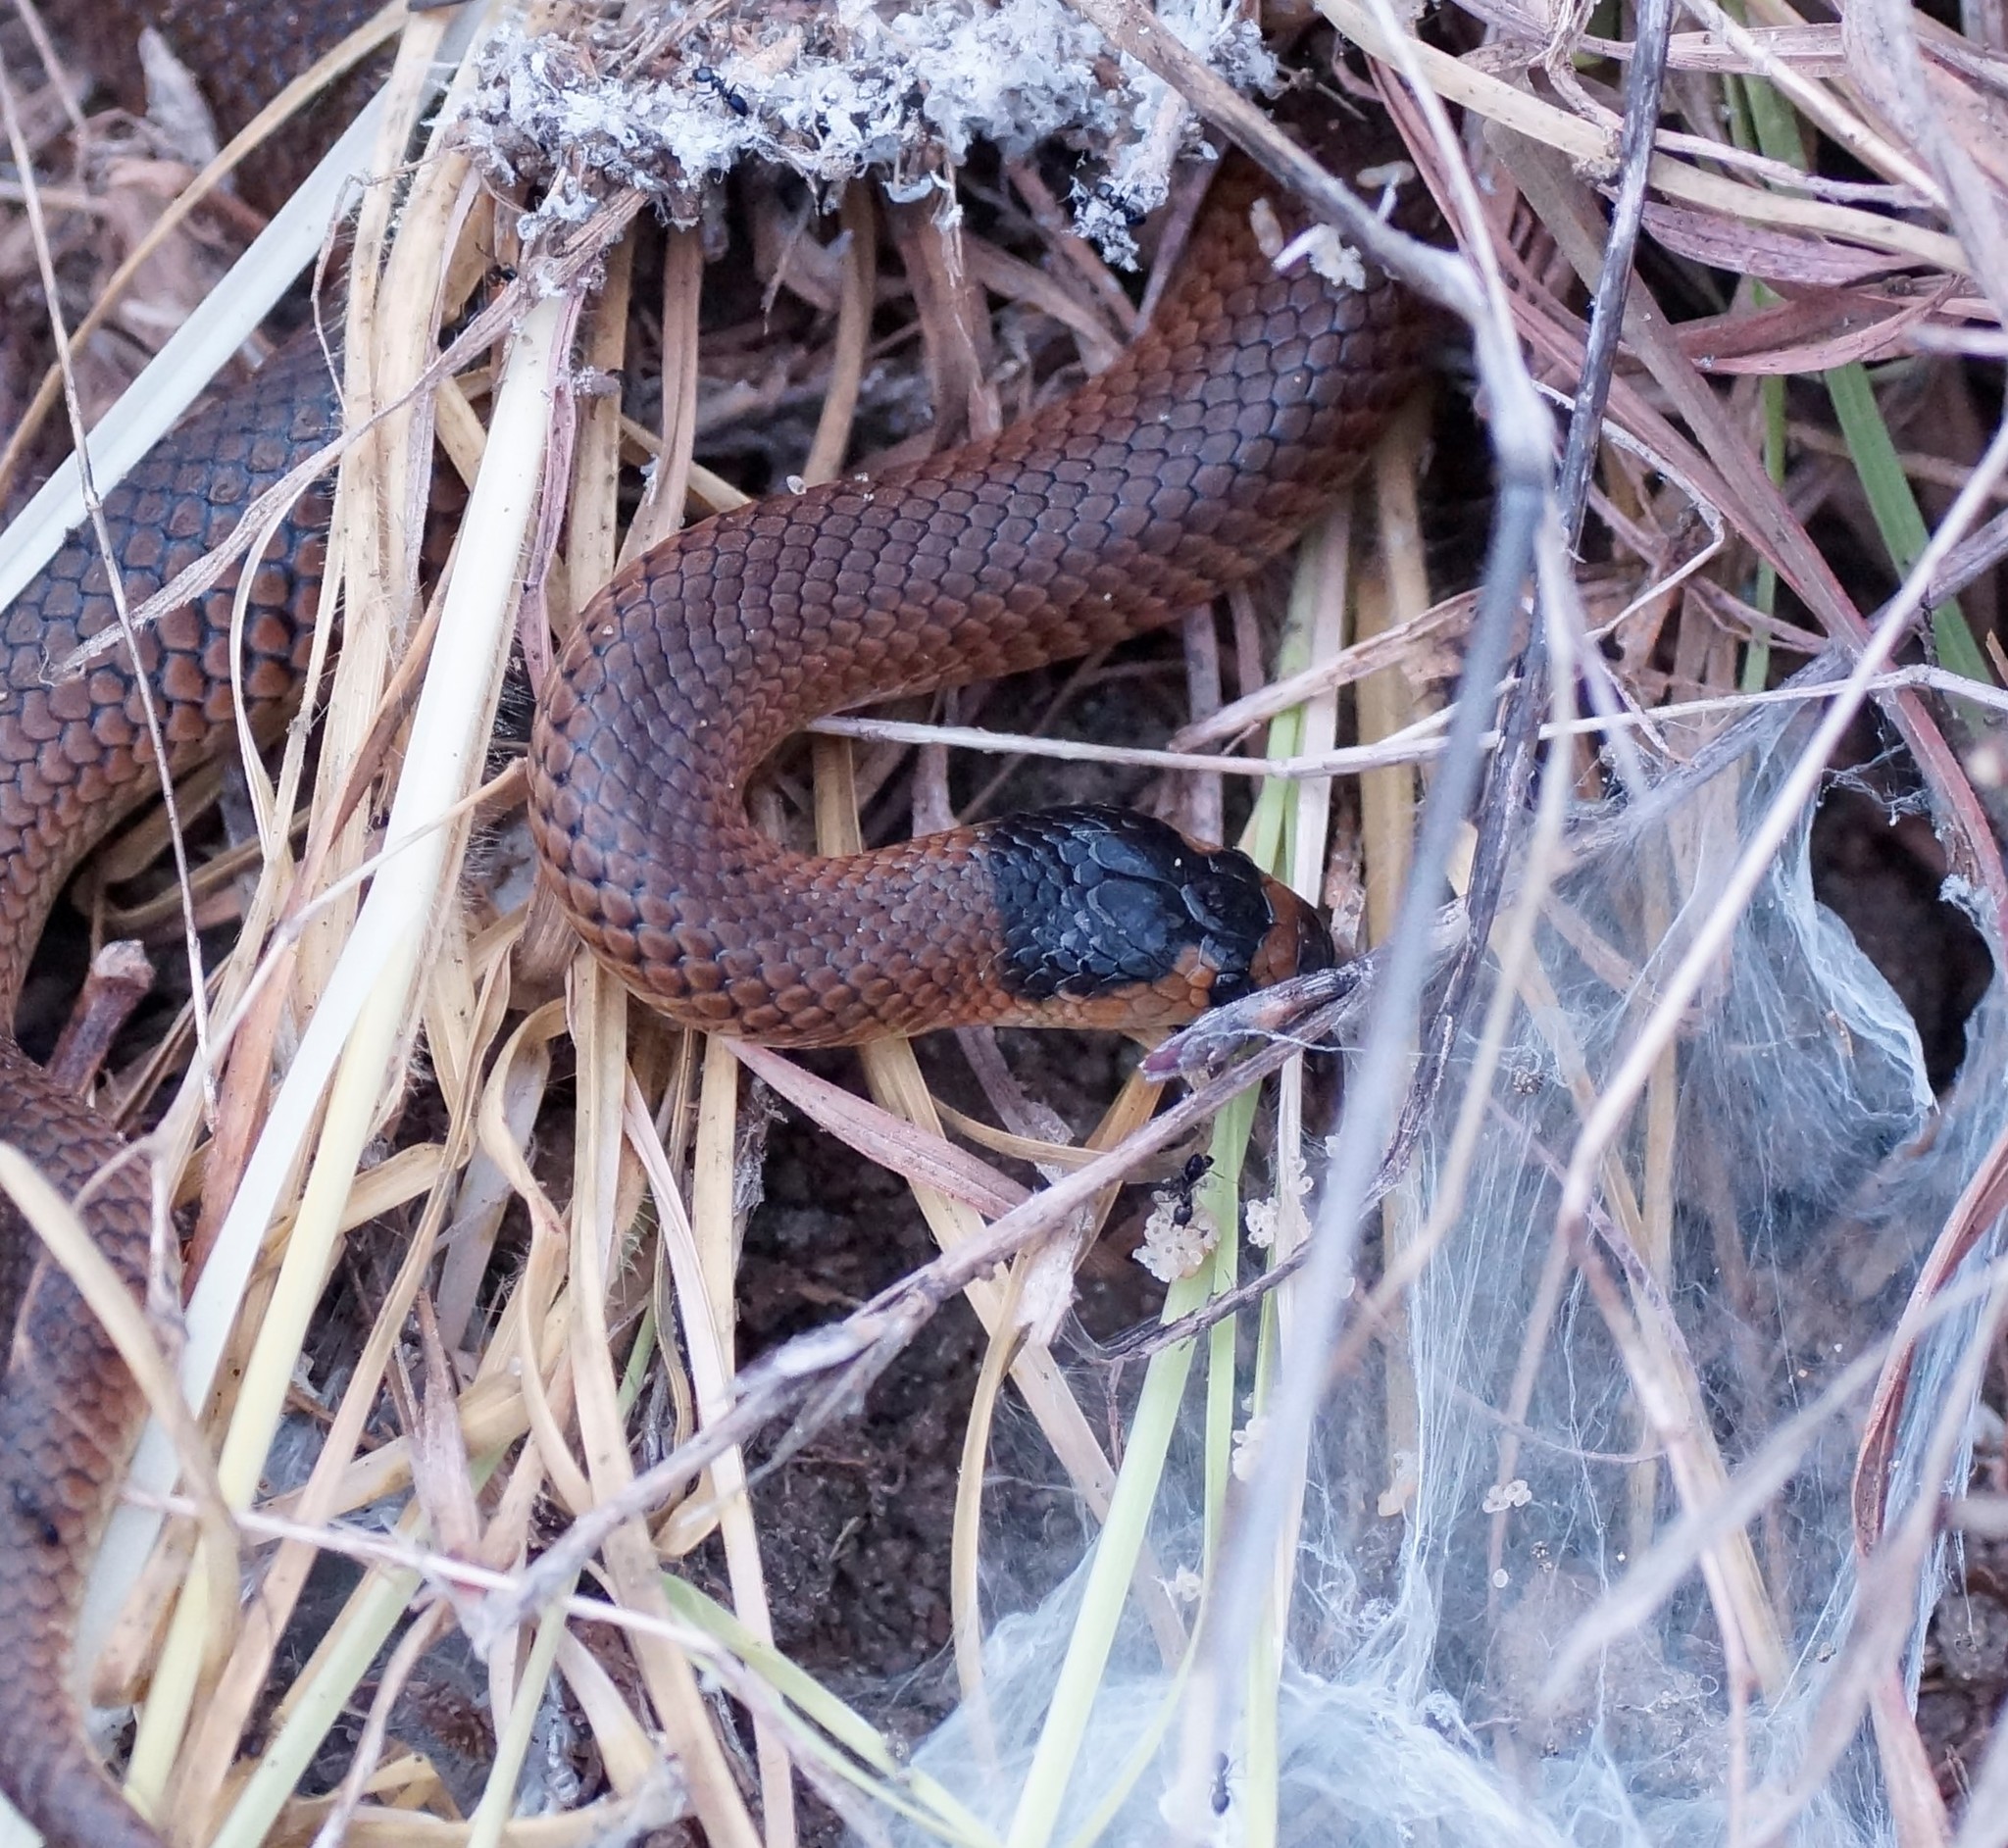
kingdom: Animalia
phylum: Chordata
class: Squamata
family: Elapidae
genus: Suta
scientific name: Suta flagellum
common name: Little whip snake
